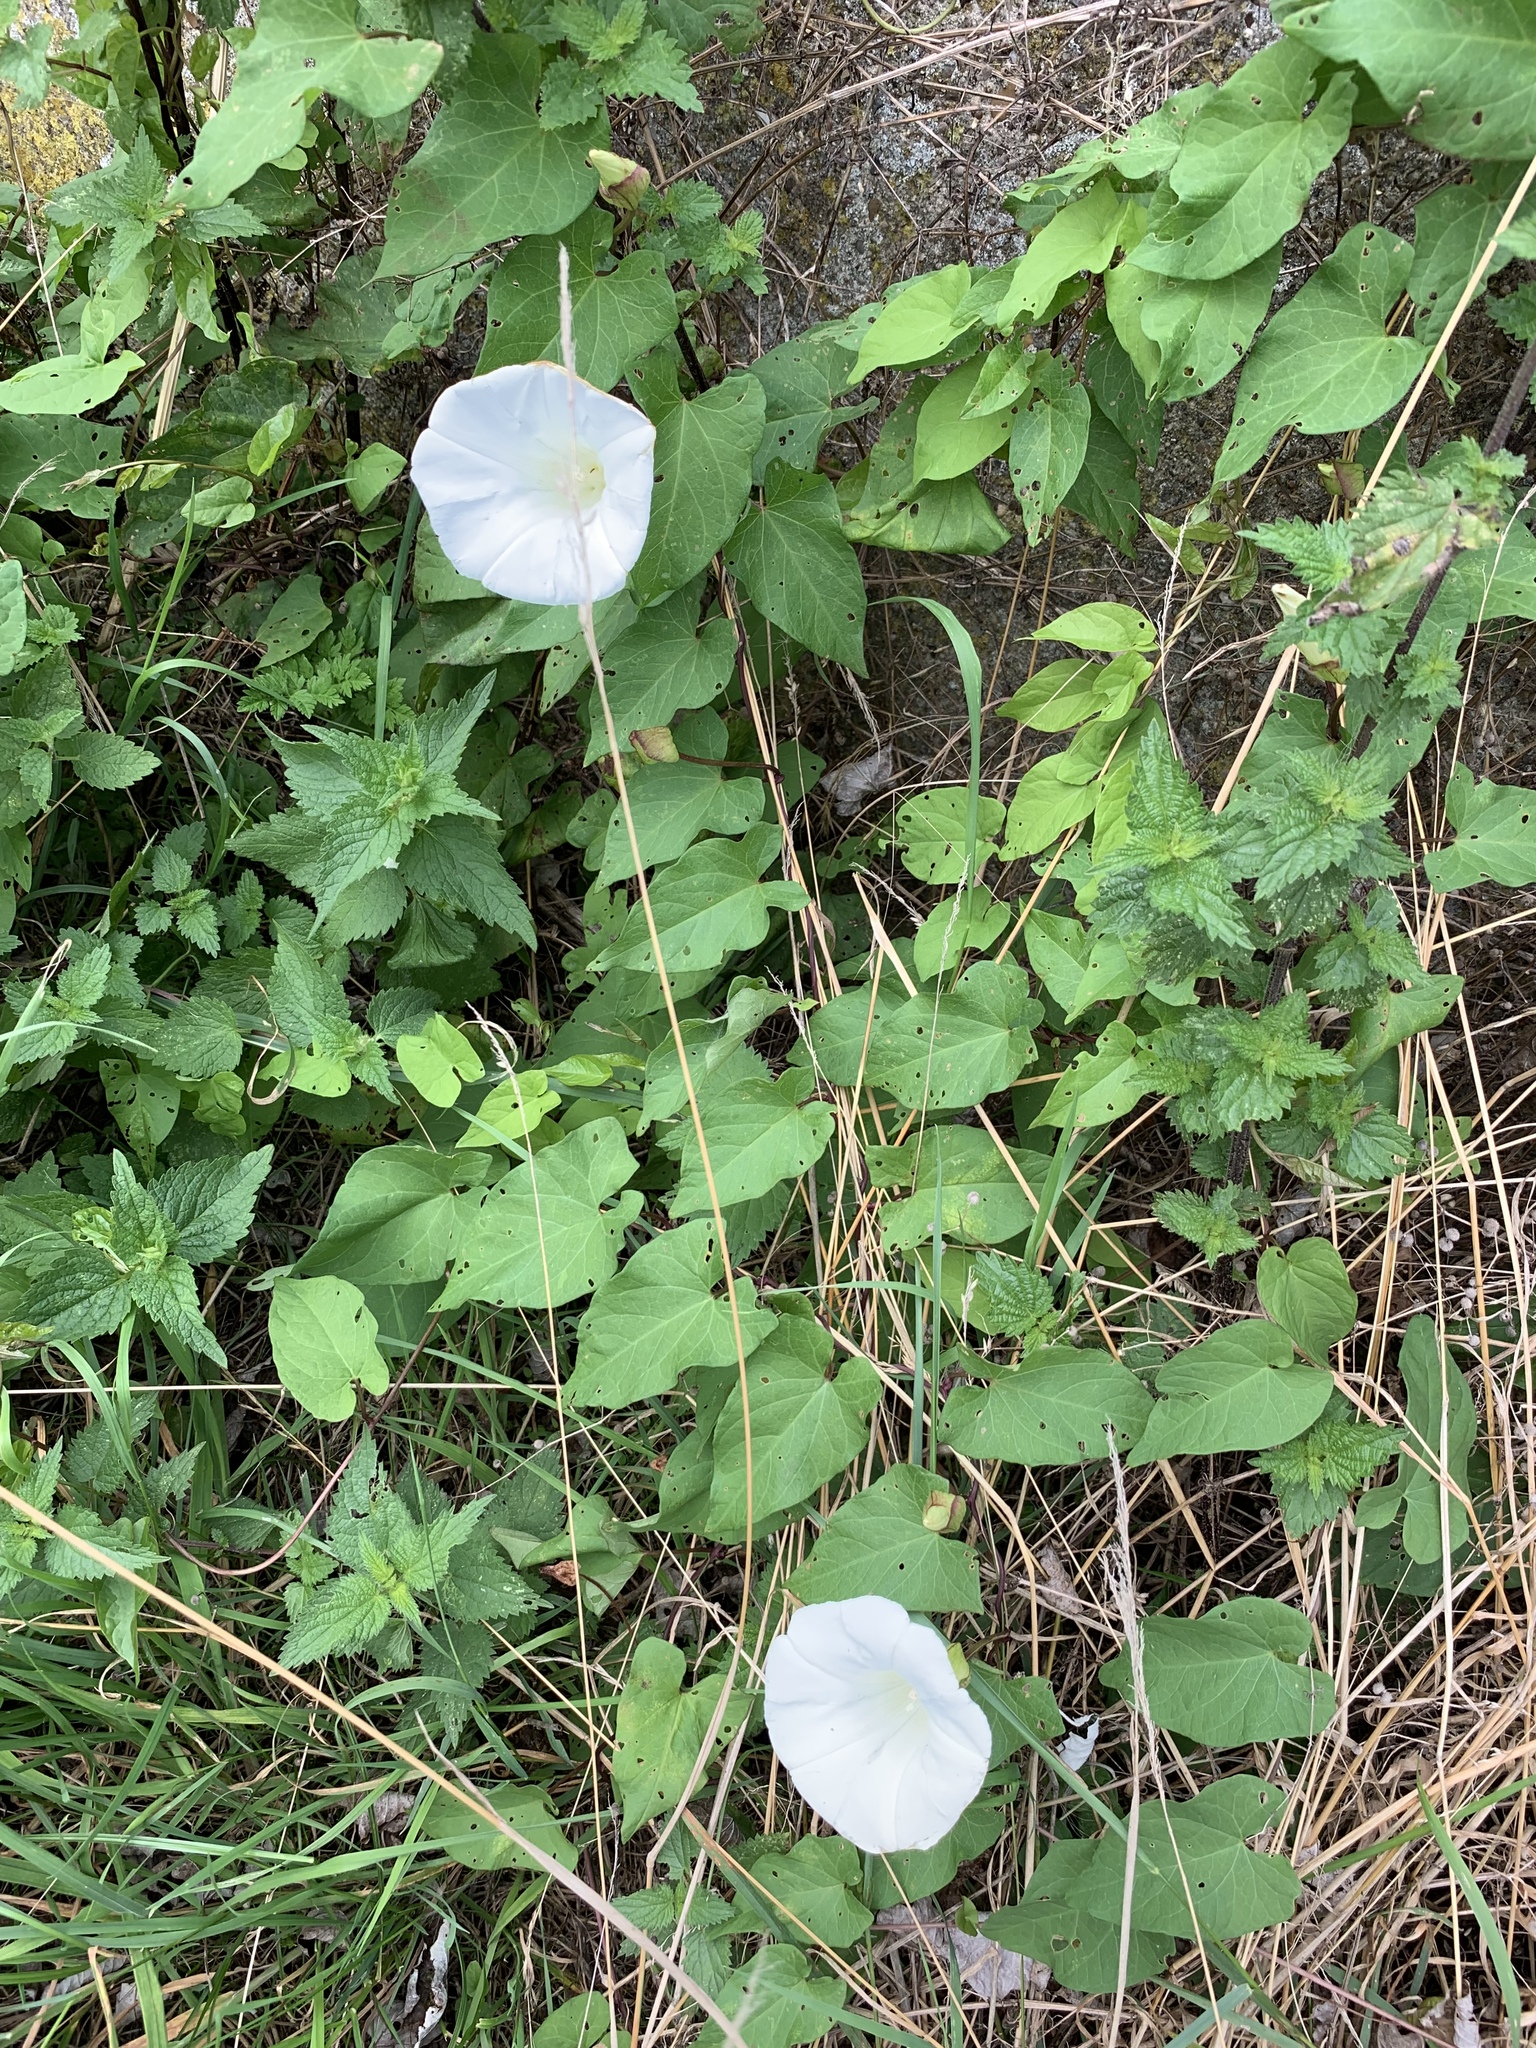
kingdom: Plantae
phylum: Tracheophyta
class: Magnoliopsida
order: Solanales
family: Convolvulaceae
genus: Calystegia
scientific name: Calystegia silvatica
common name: Large bindweed
